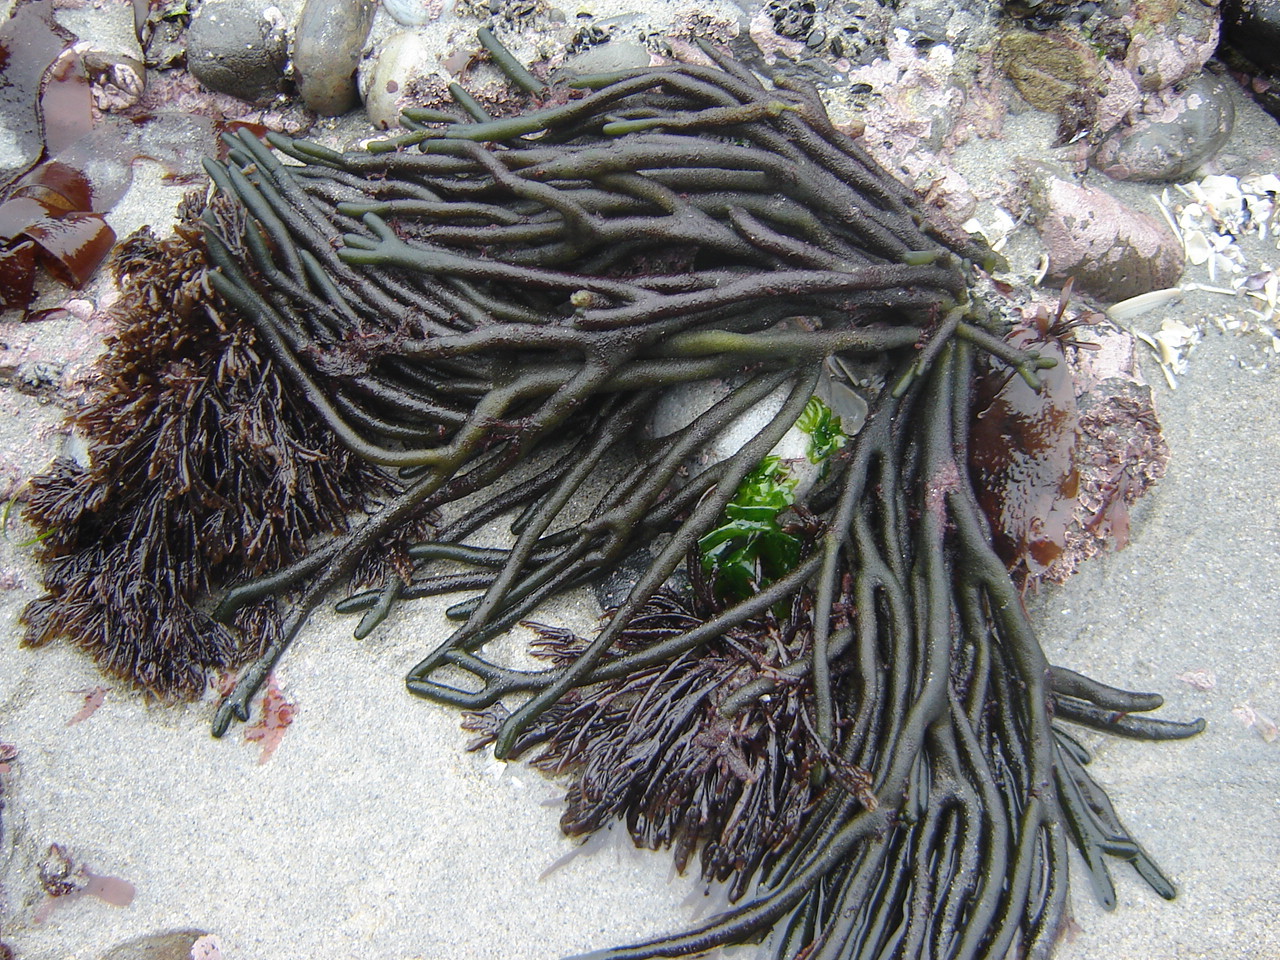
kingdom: Plantae
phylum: Chlorophyta
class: Ulvophyceae
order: Bryopsidales
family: Codiaceae
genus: Codium
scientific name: Codium fragile
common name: Dead man's fingers
